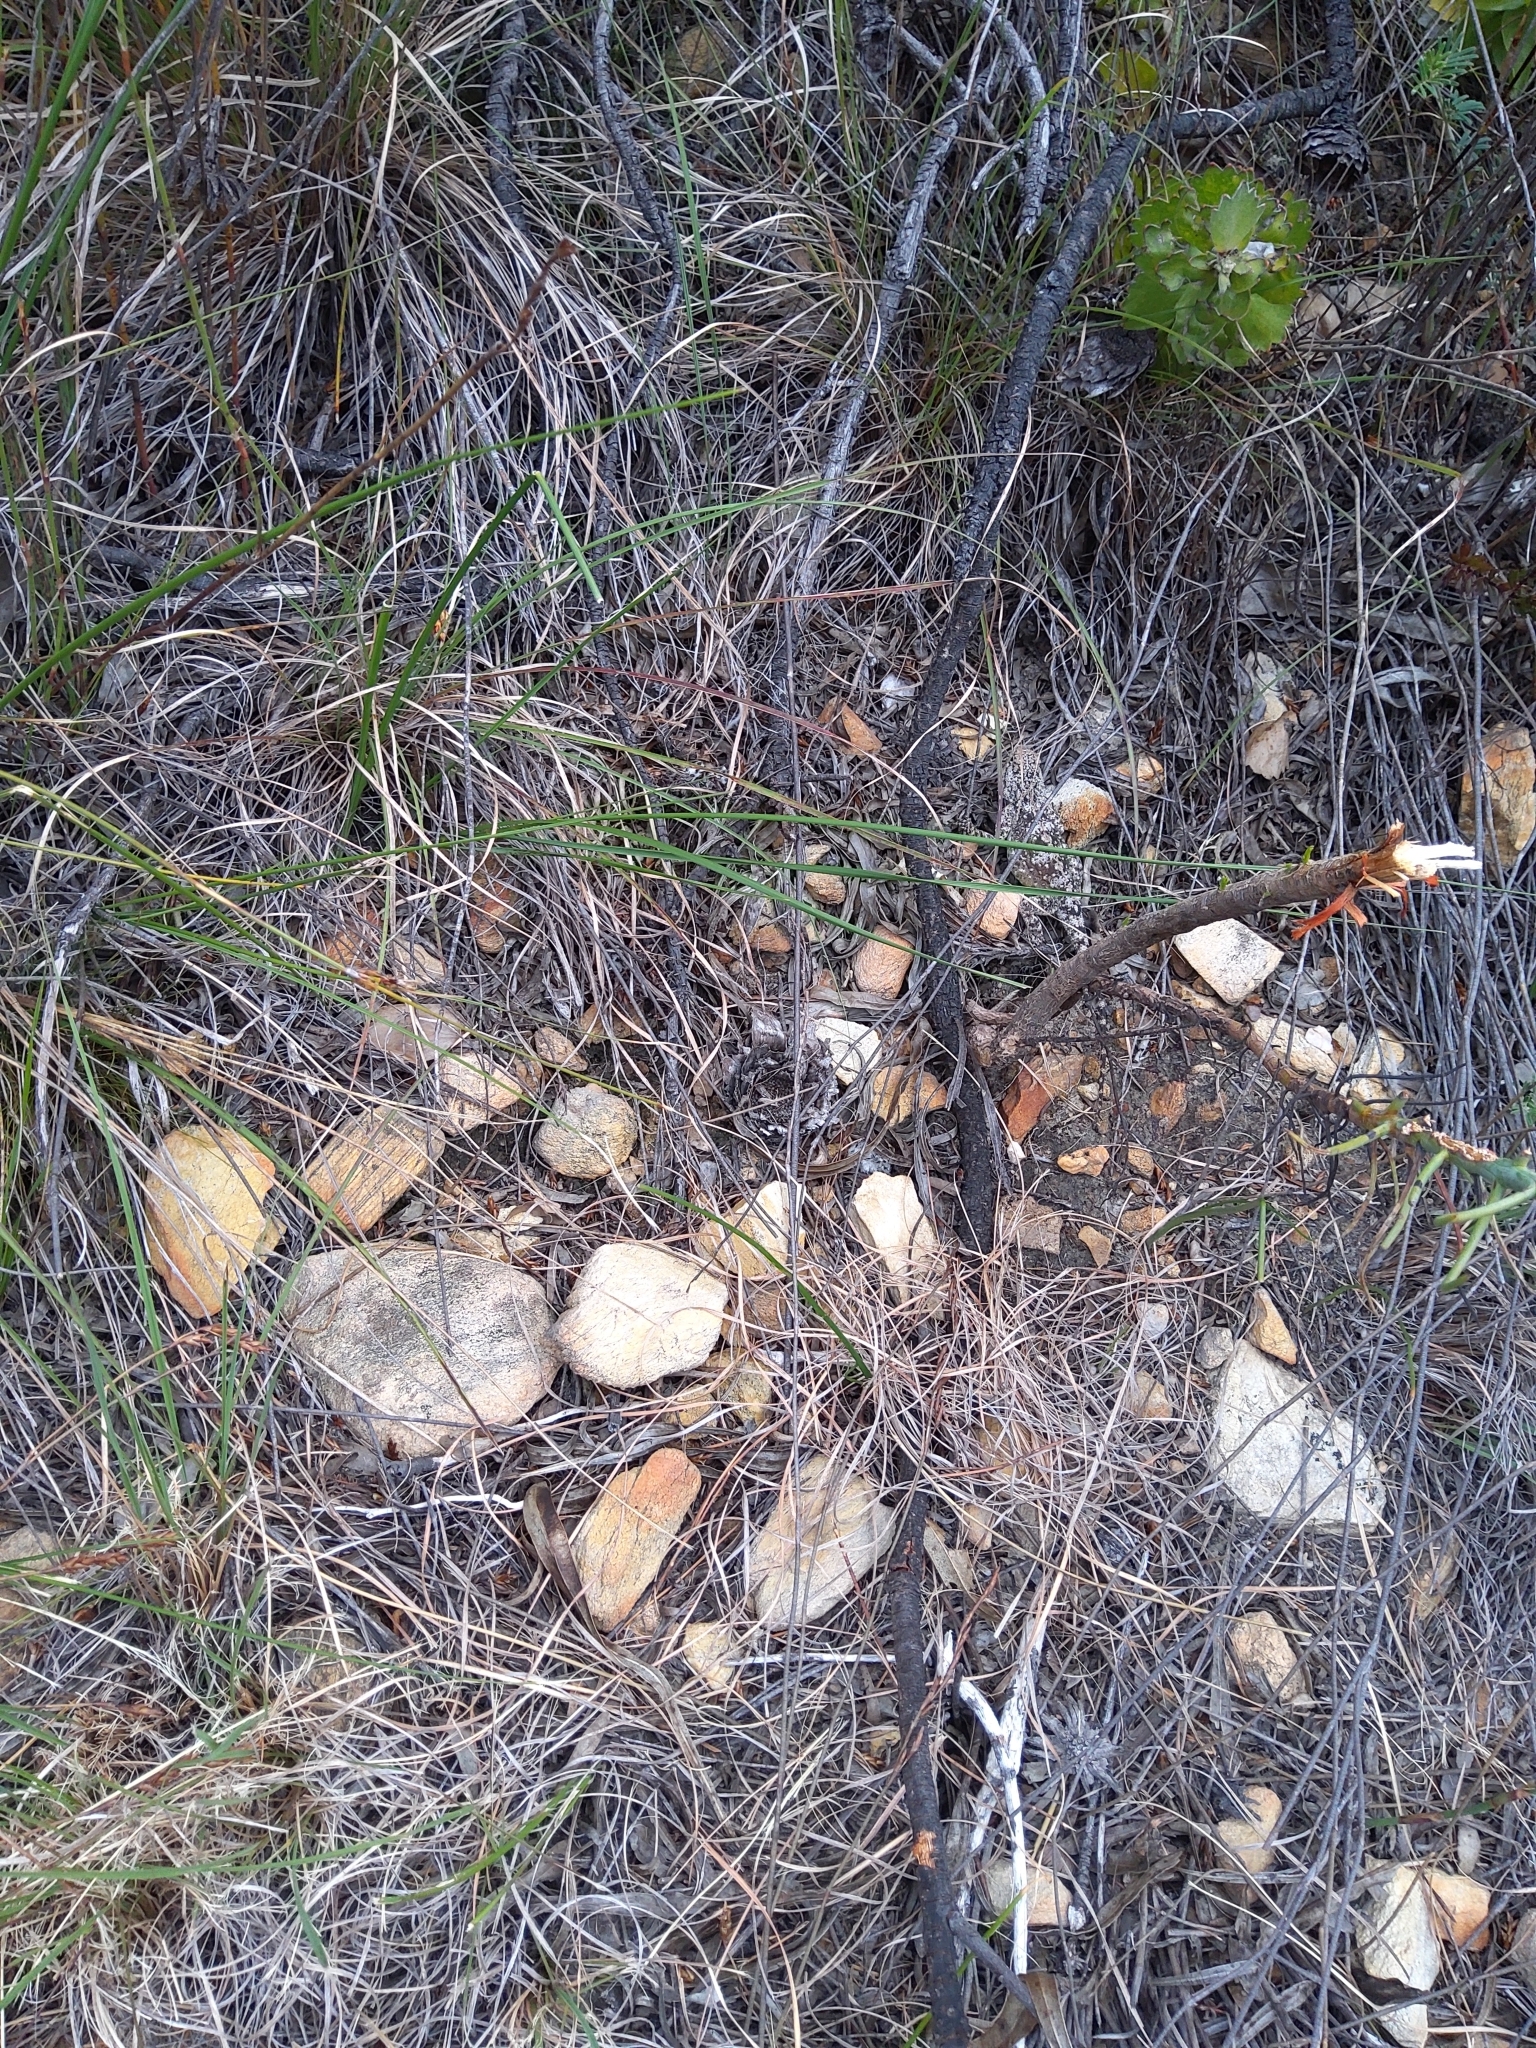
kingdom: Animalia
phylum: Chordata
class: Squamata
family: Agamidae
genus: Agama
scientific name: Agama atra
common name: Southern african rock agama
